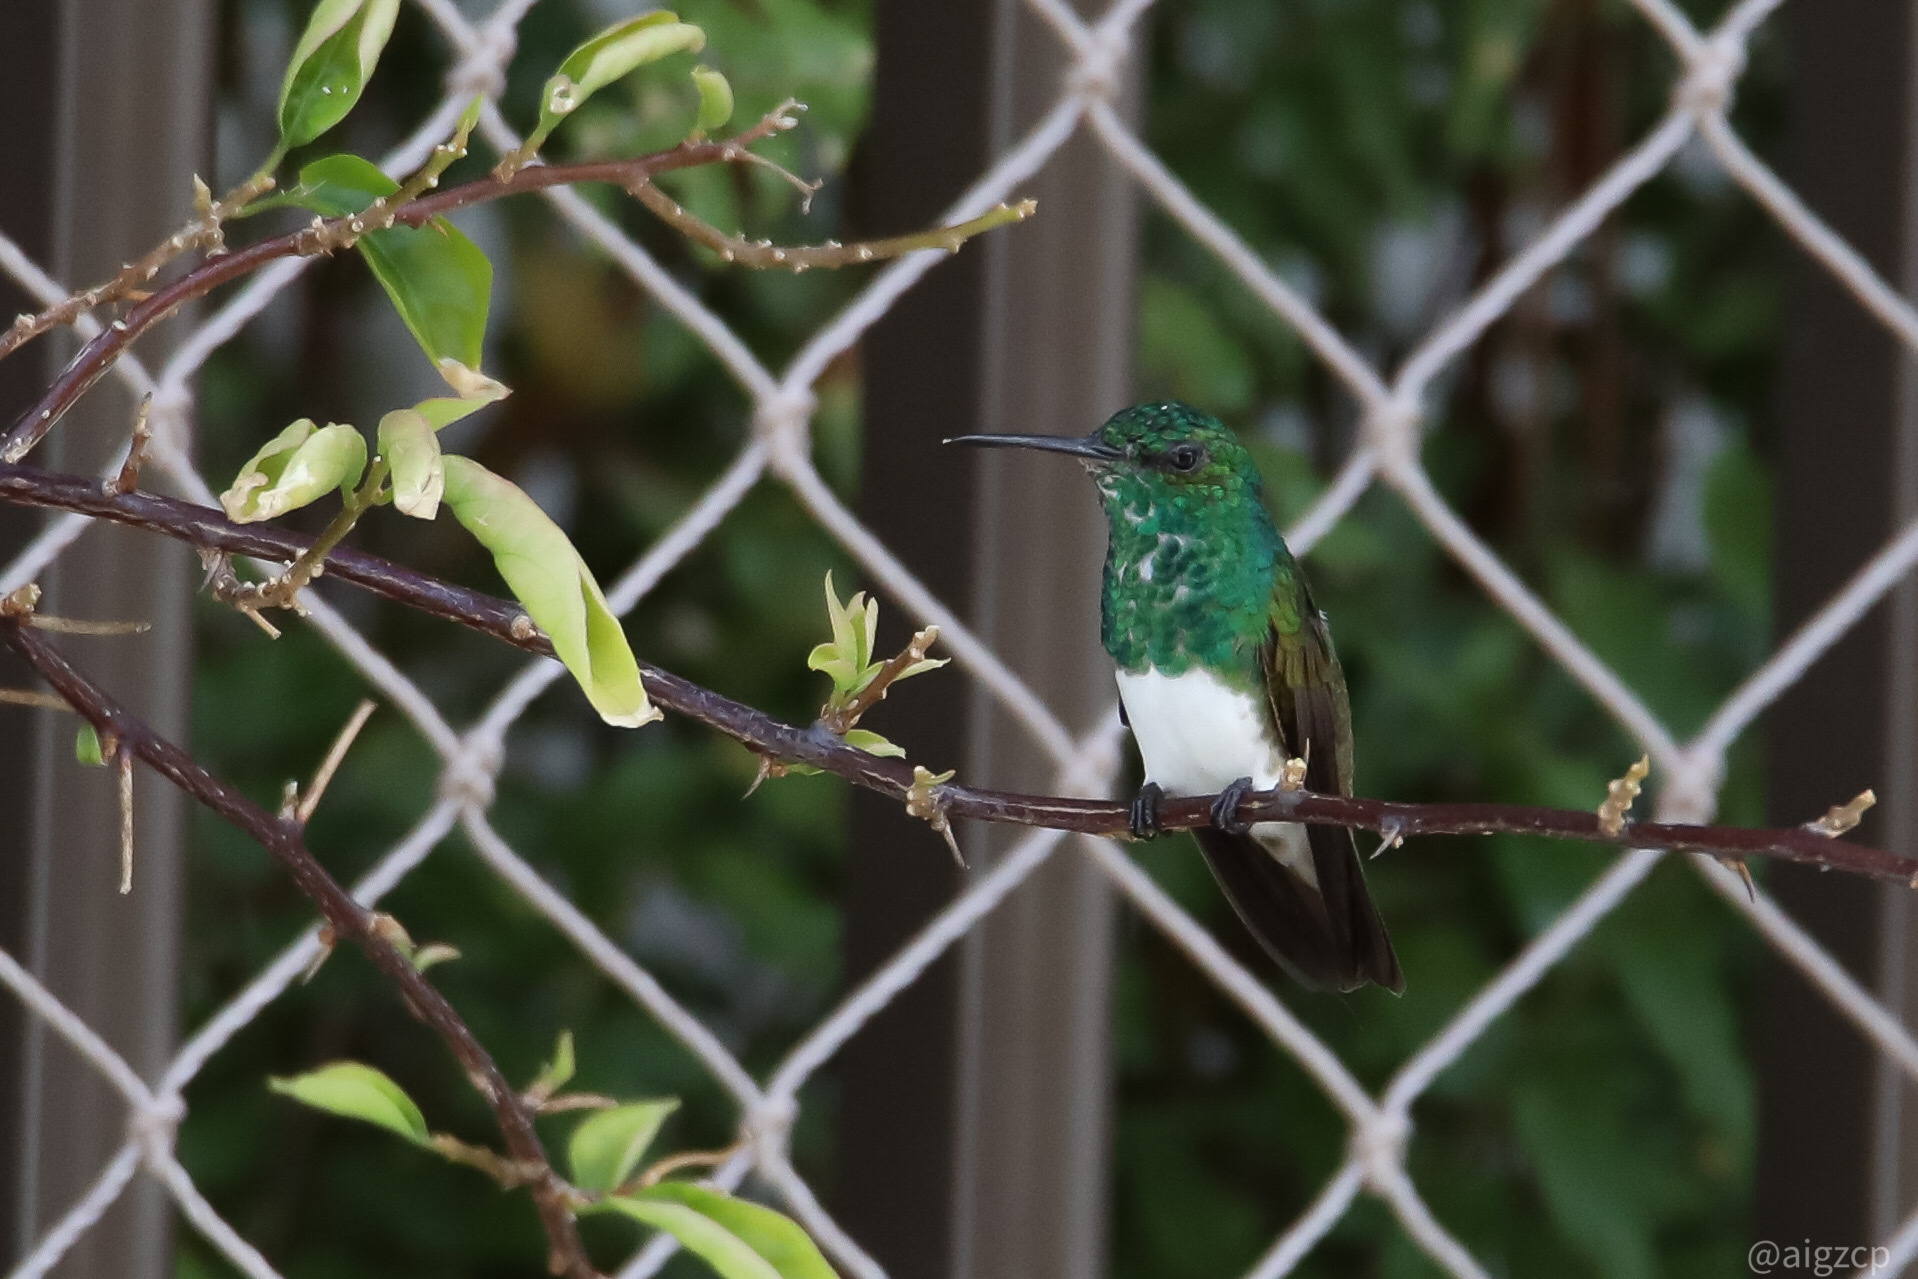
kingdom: Animalia
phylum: Chordata
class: Aves
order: Apodiformes
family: Trochilidae
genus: Saucerottia
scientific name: Saucerottia edward
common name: Snowy-bellied hummingbird
